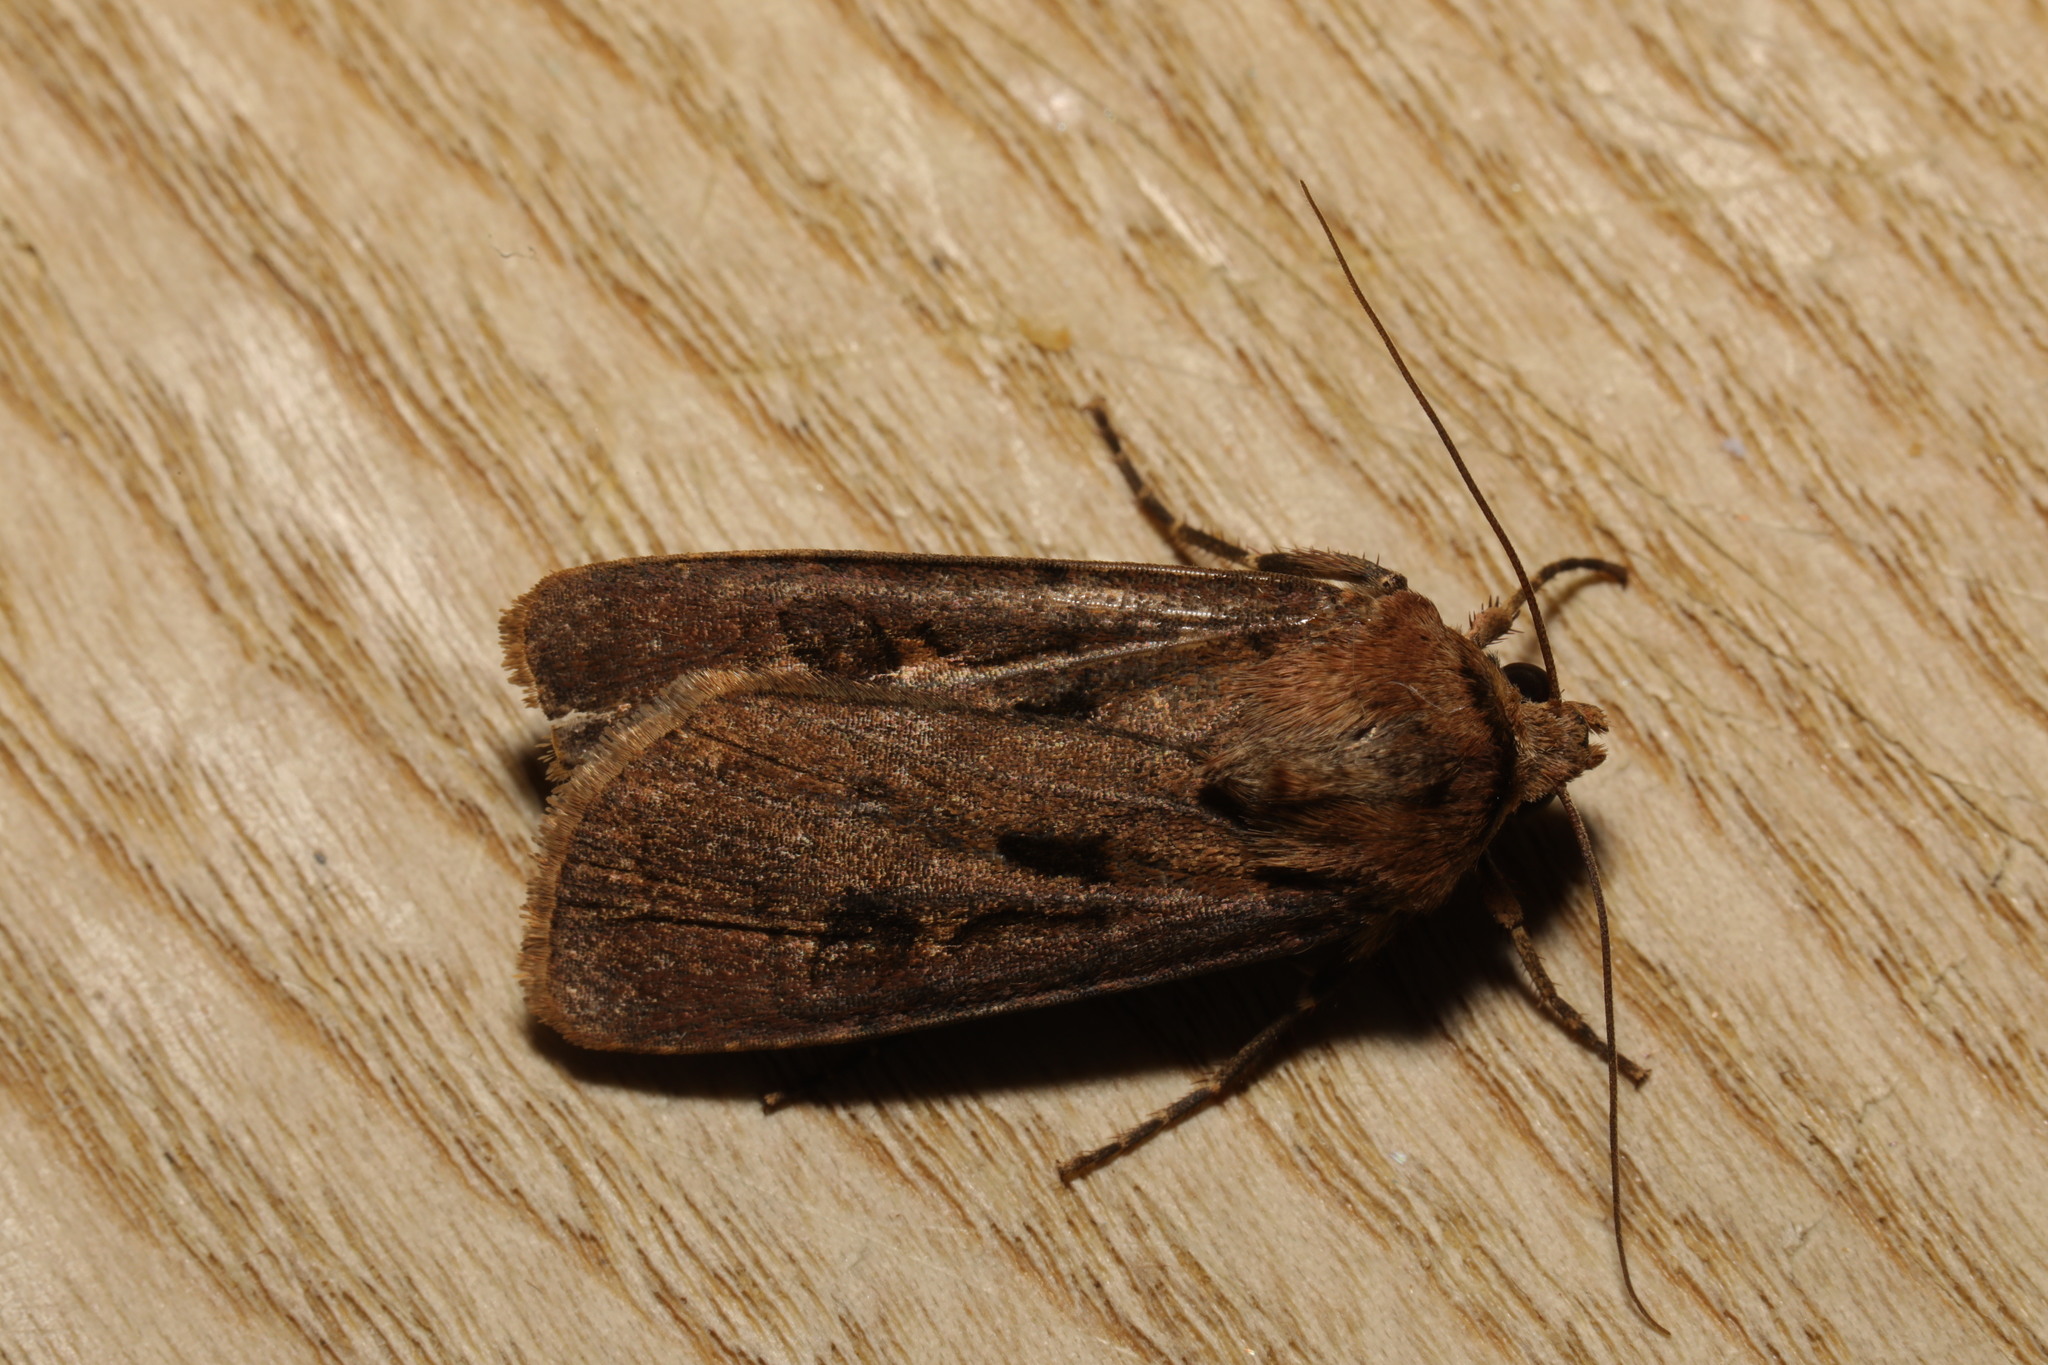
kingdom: Animalia
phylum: Arthropoda
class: Insecta
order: Lepidoptera
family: Noctuidae
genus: Agrotis
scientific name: Agrotis exclamationis
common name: Heart and dart
